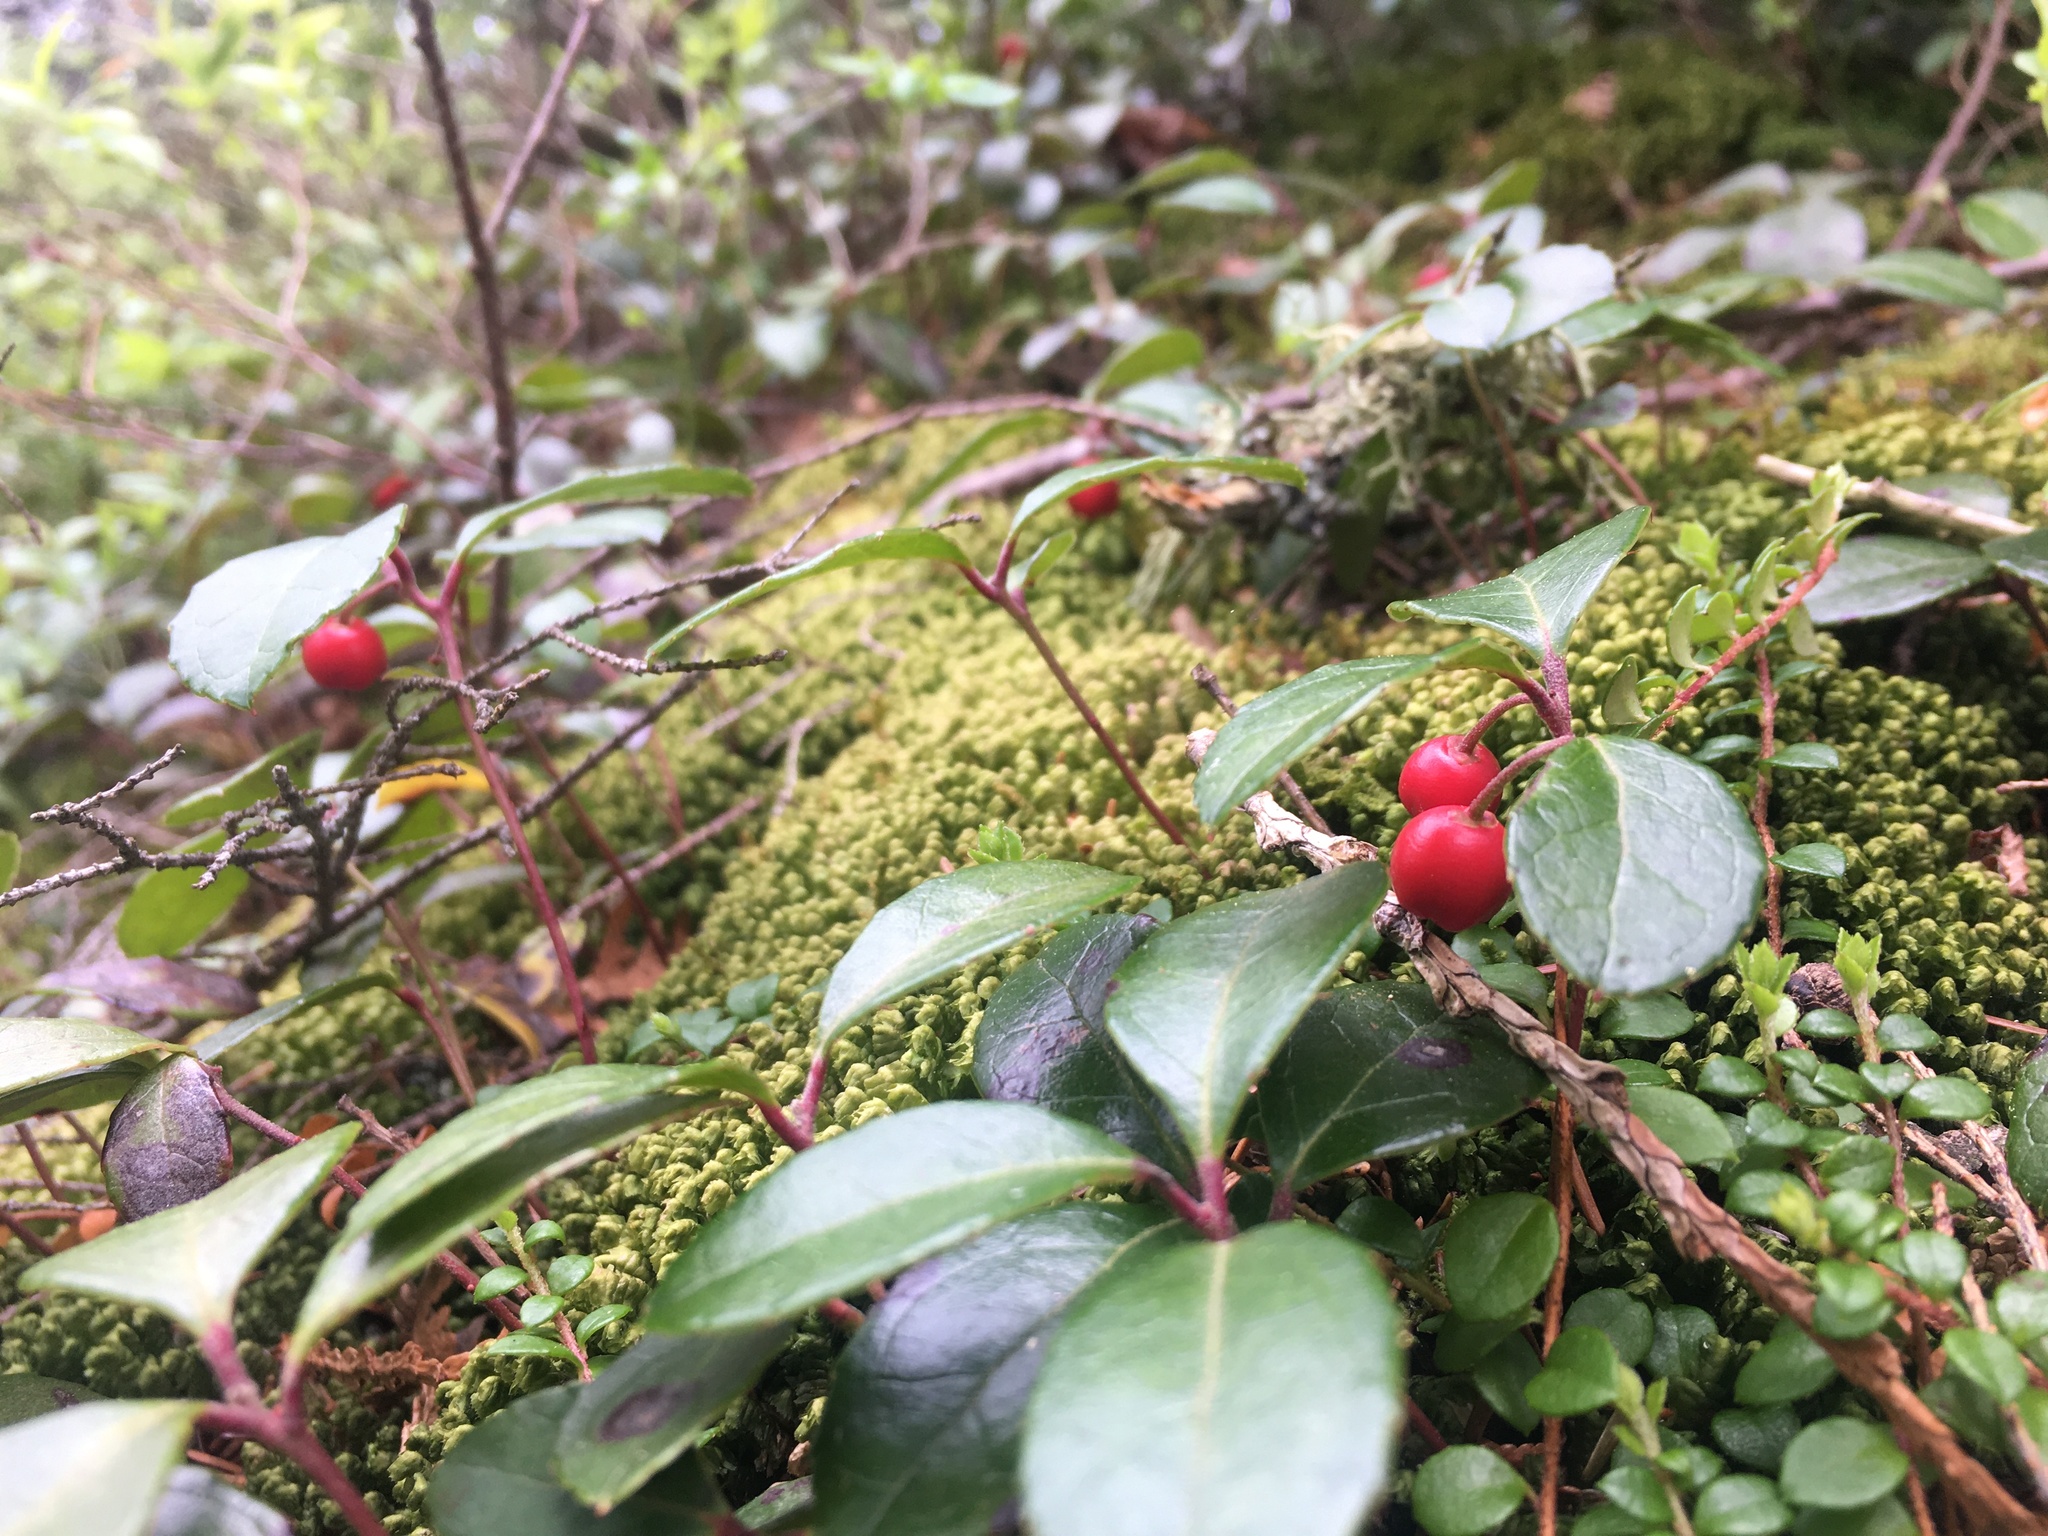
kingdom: Plantae
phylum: Tracheophyta
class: Magnoliopsida
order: Ericales
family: Ericaceae
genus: Gaultheria
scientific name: Gaultheria procumbens
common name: Checkerberry
